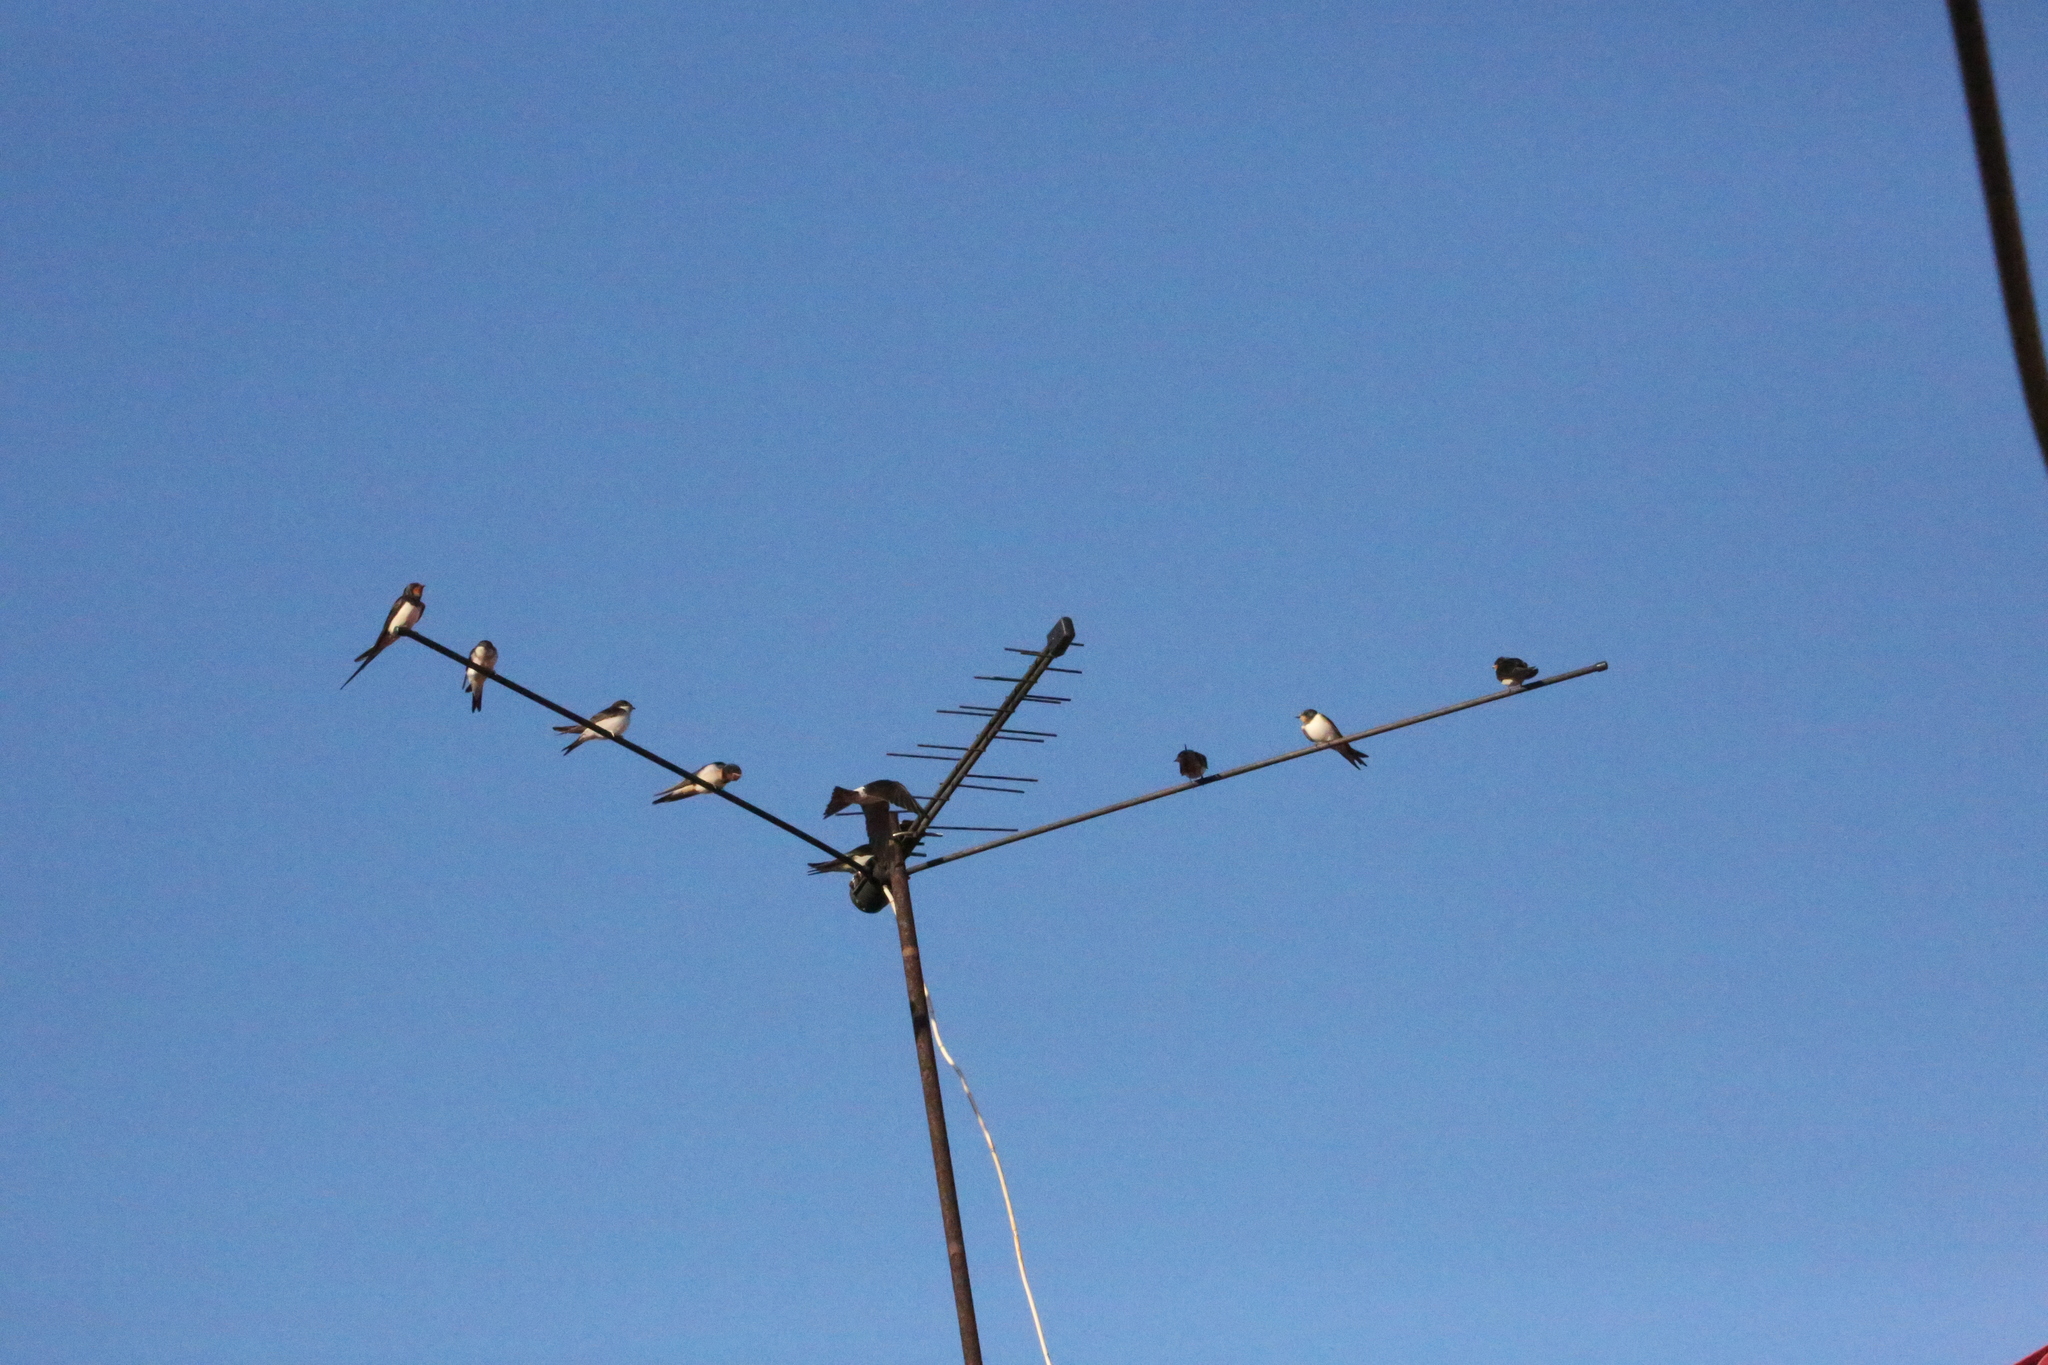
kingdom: Animalia
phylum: Chordata
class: Aves
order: Passeriformes
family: Hirundinidae
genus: Hirundo
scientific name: Hirundo rustica
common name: Barn swallow
